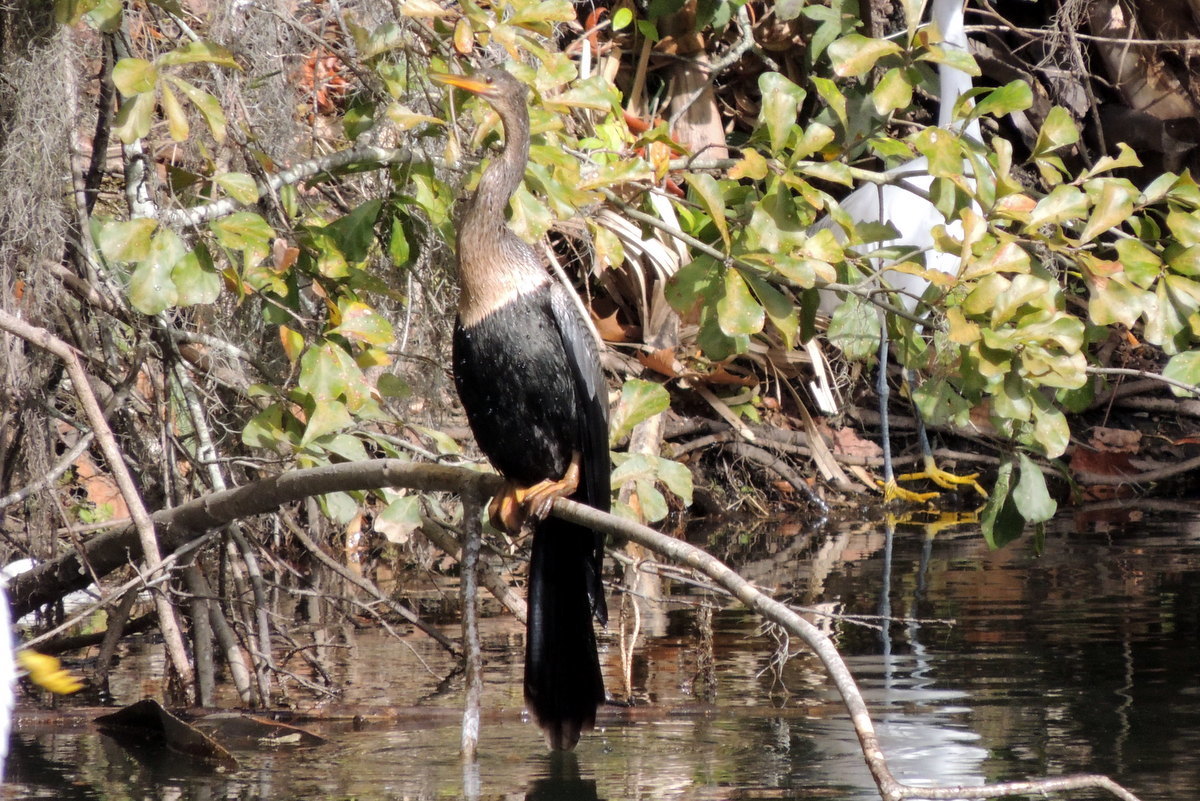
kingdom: Animalia
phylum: Chordata
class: Aves
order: Suliformes
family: Anhingidae
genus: Anhinga
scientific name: Anhinga anhinga
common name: Anhinga
